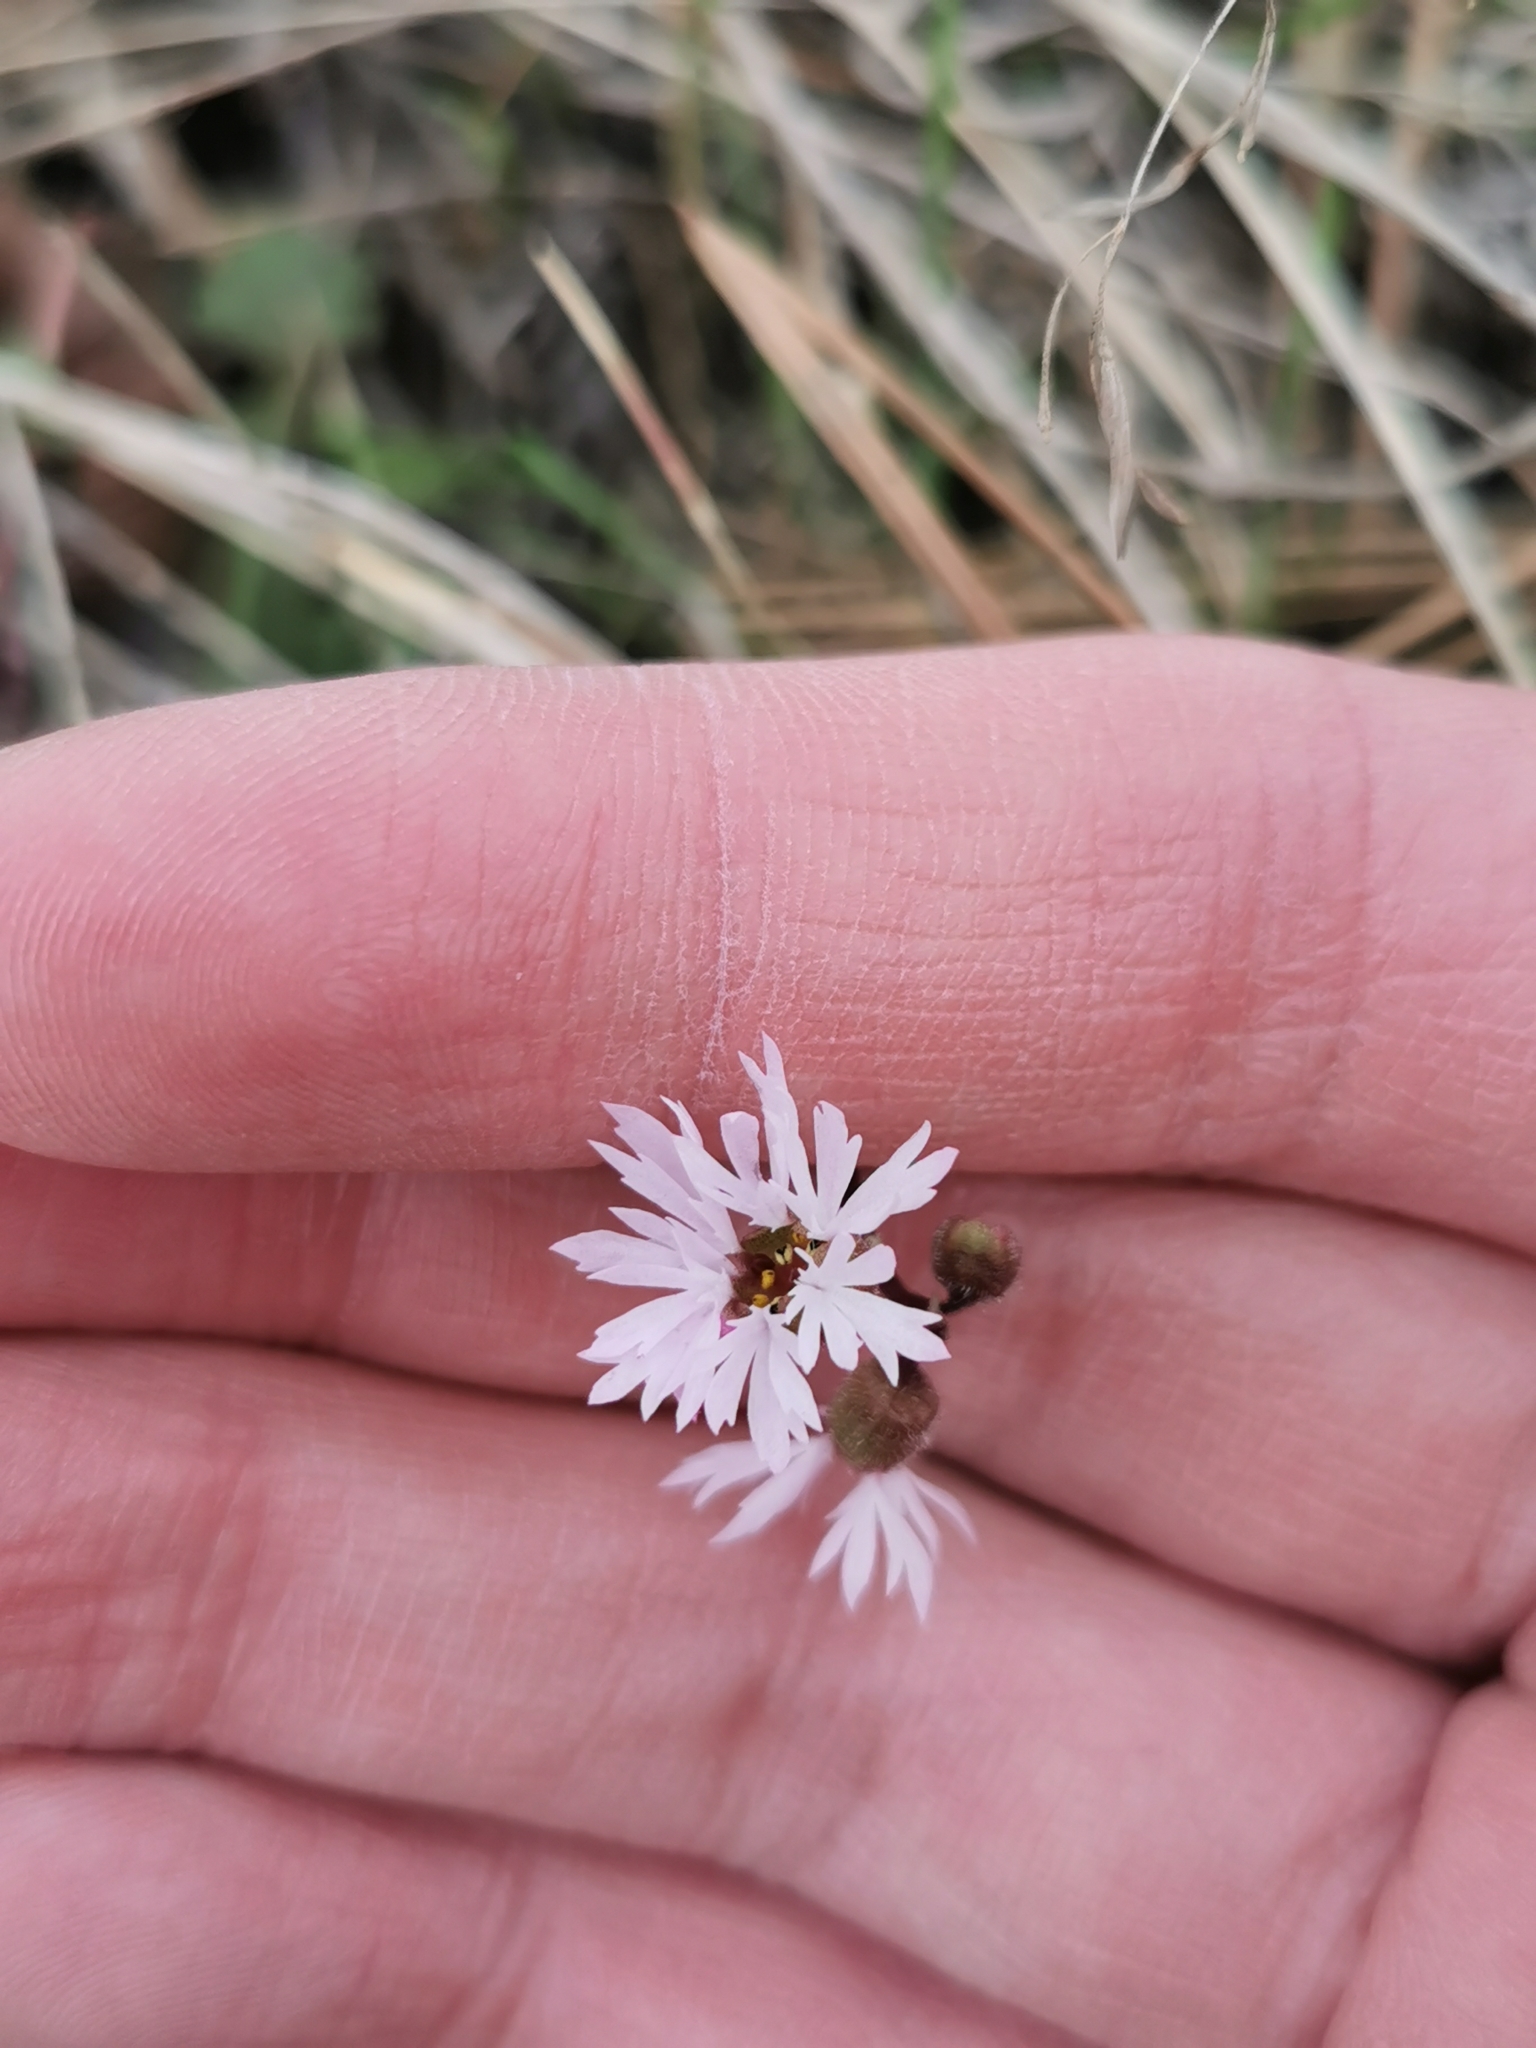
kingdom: Plantae
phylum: Tracheophyta
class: Magnoliopsida
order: Saxifragales
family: Saxifragaceae
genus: Lithophragma
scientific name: Lithophragma glabrum
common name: Bulbous prairie-star
